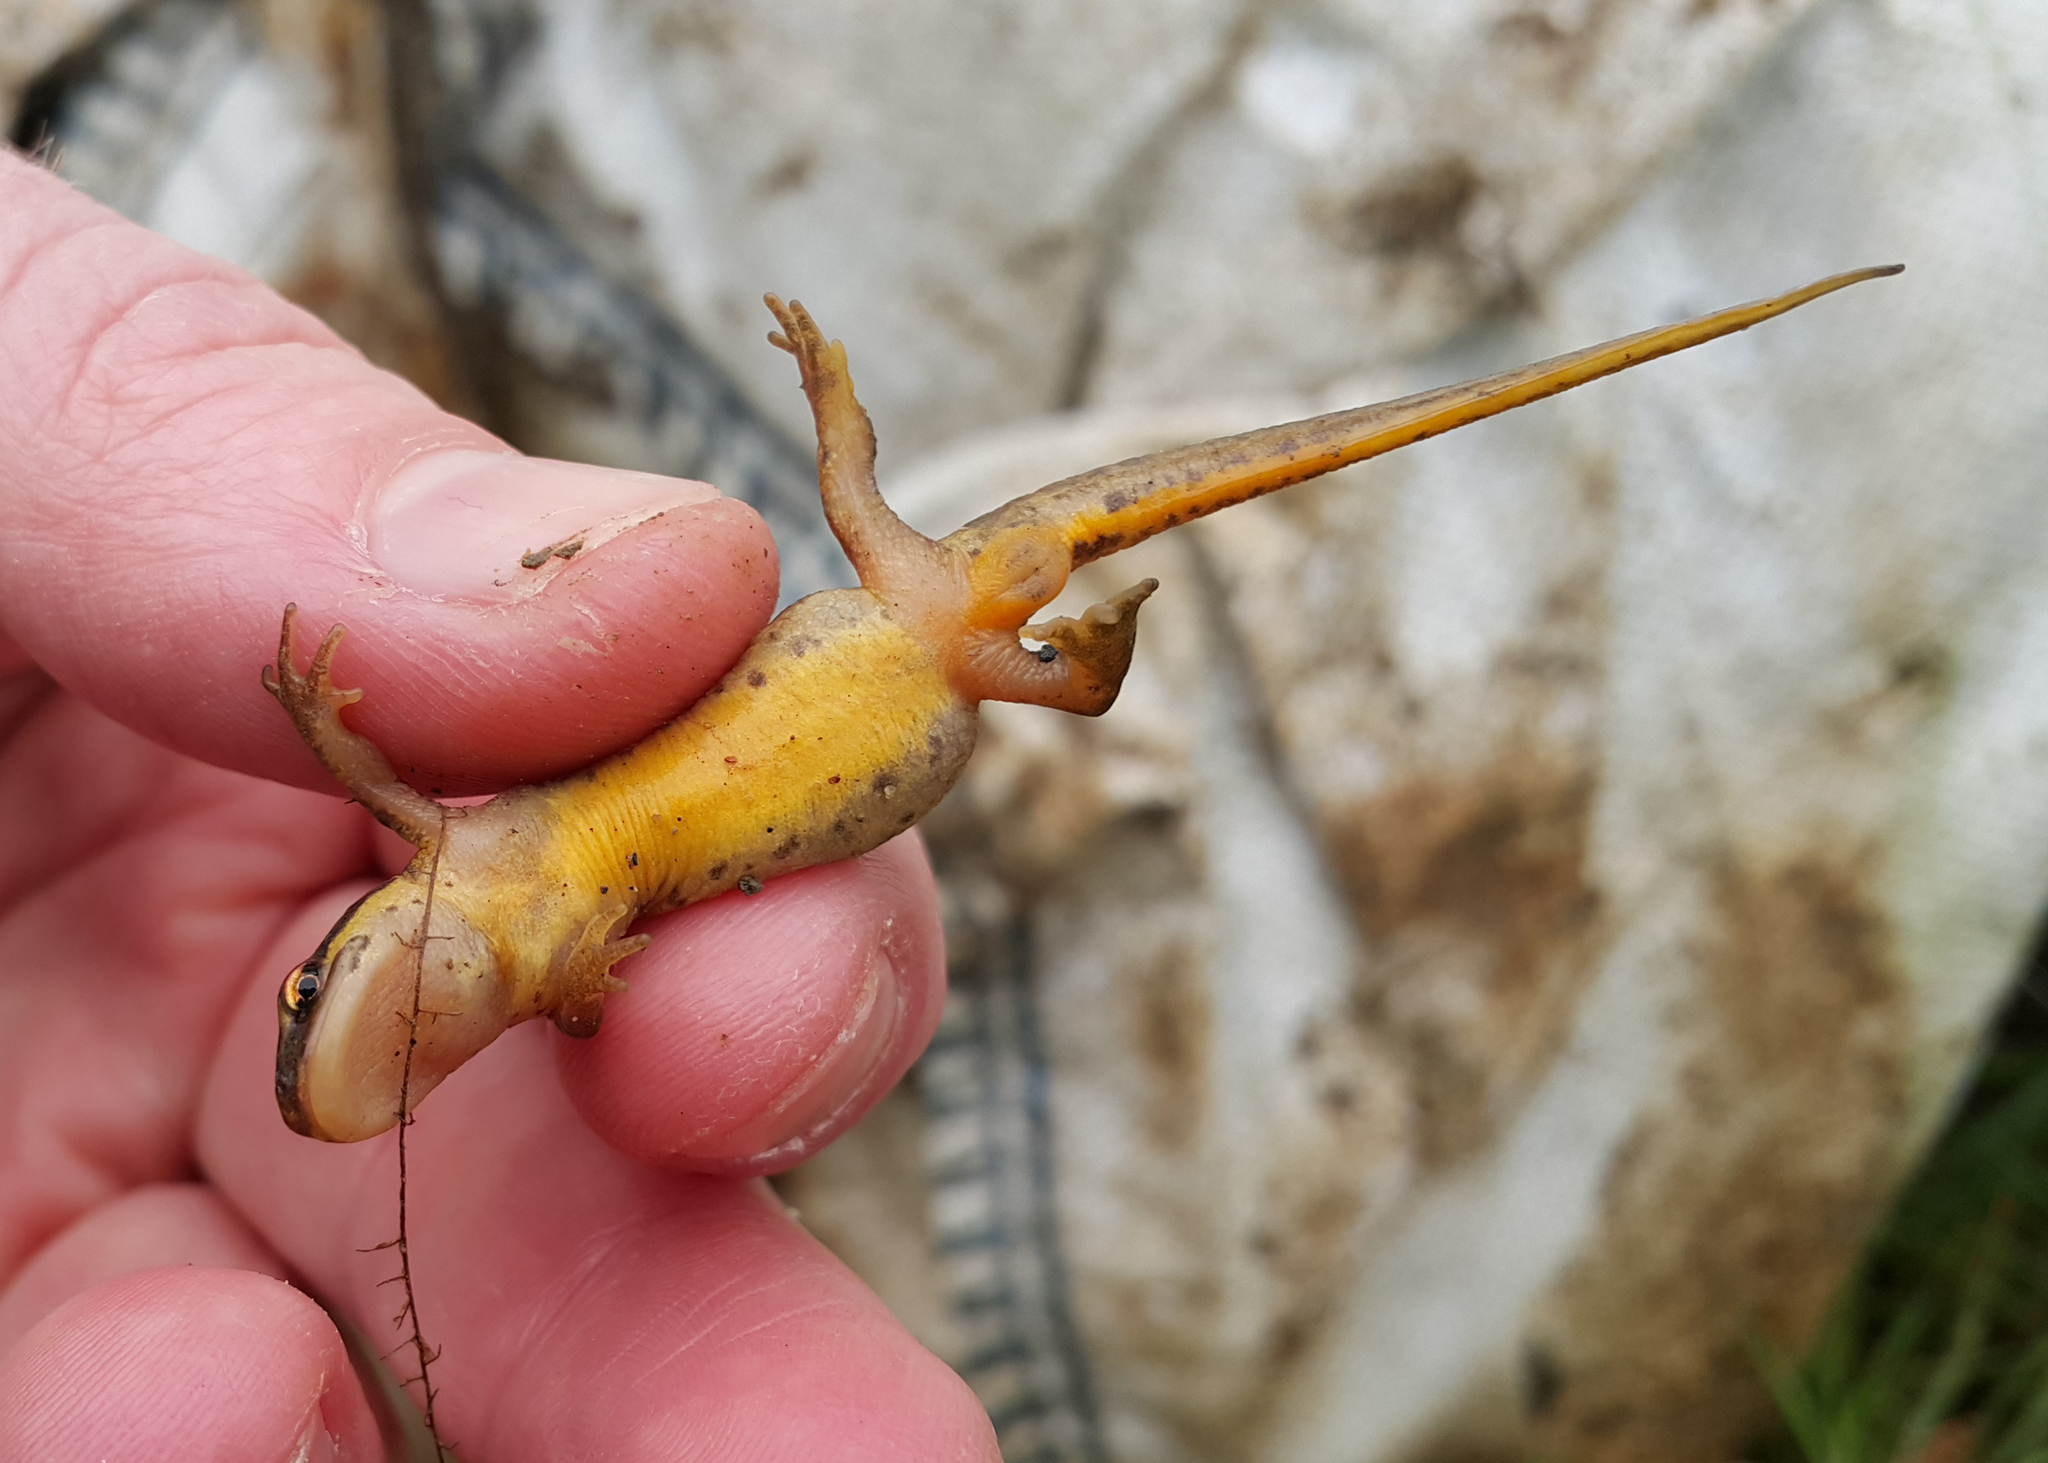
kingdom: Animalia
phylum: Chordata
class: Amphibia
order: Caudata
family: Salamandridae
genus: Lissotriton
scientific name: Lissotriton helveticus
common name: Palmate newt
